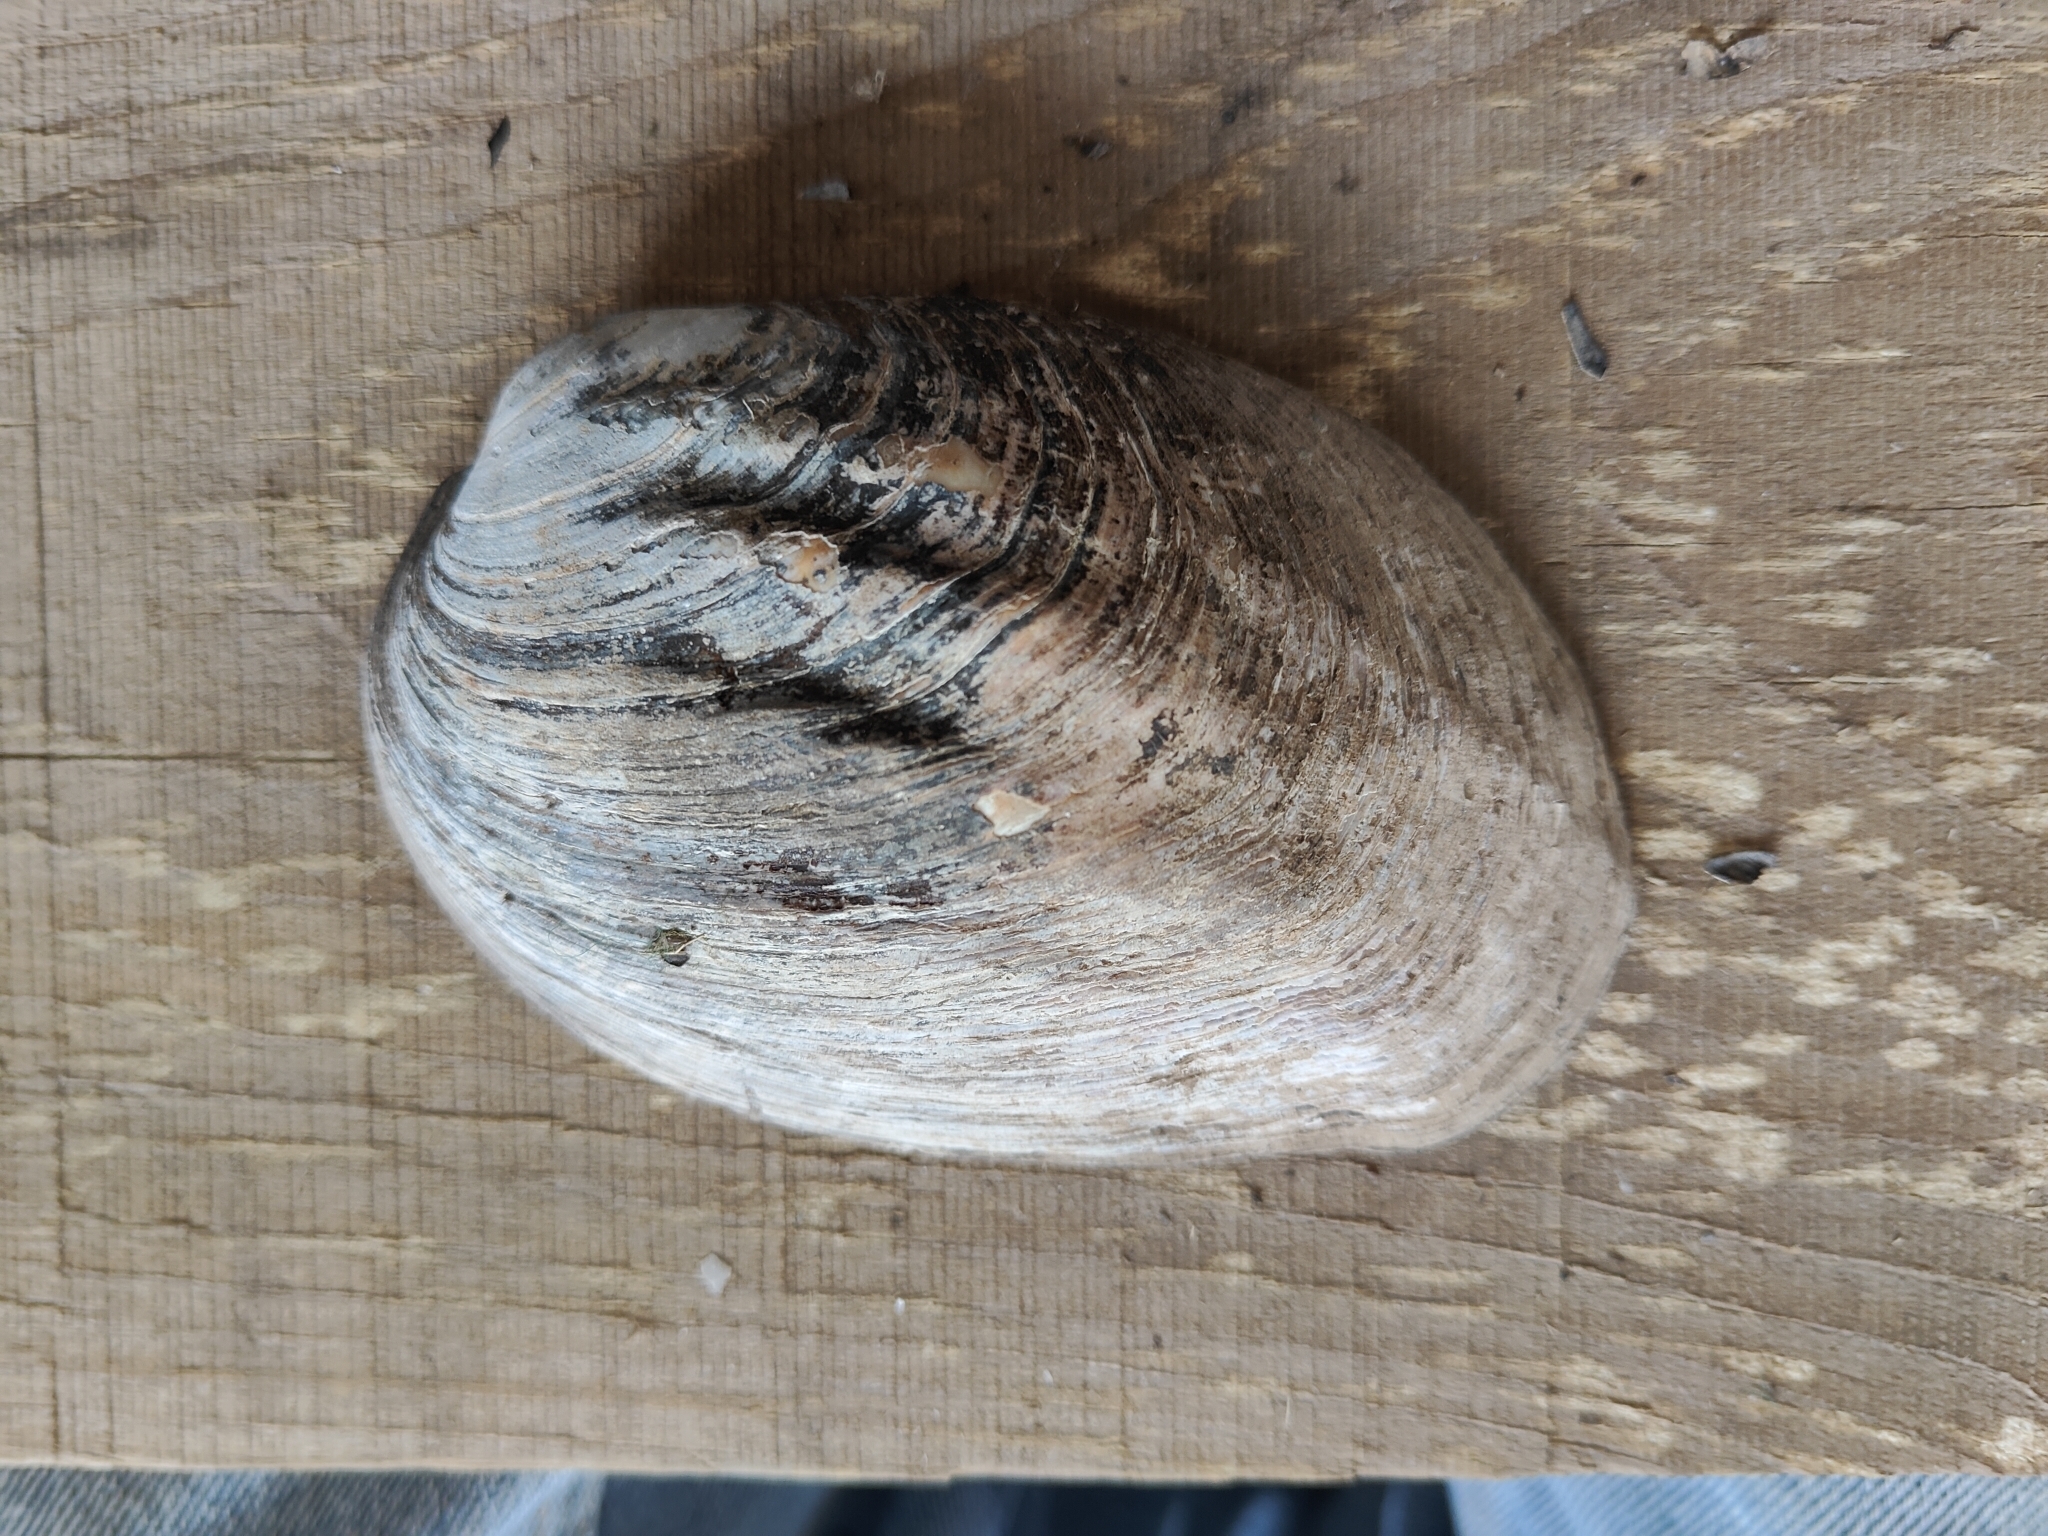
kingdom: Animalia
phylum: Mollusca
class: Bivalvia
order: Unionida
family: Unionidae
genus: Amblema
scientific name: Amblema plicata
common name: Threeridge
